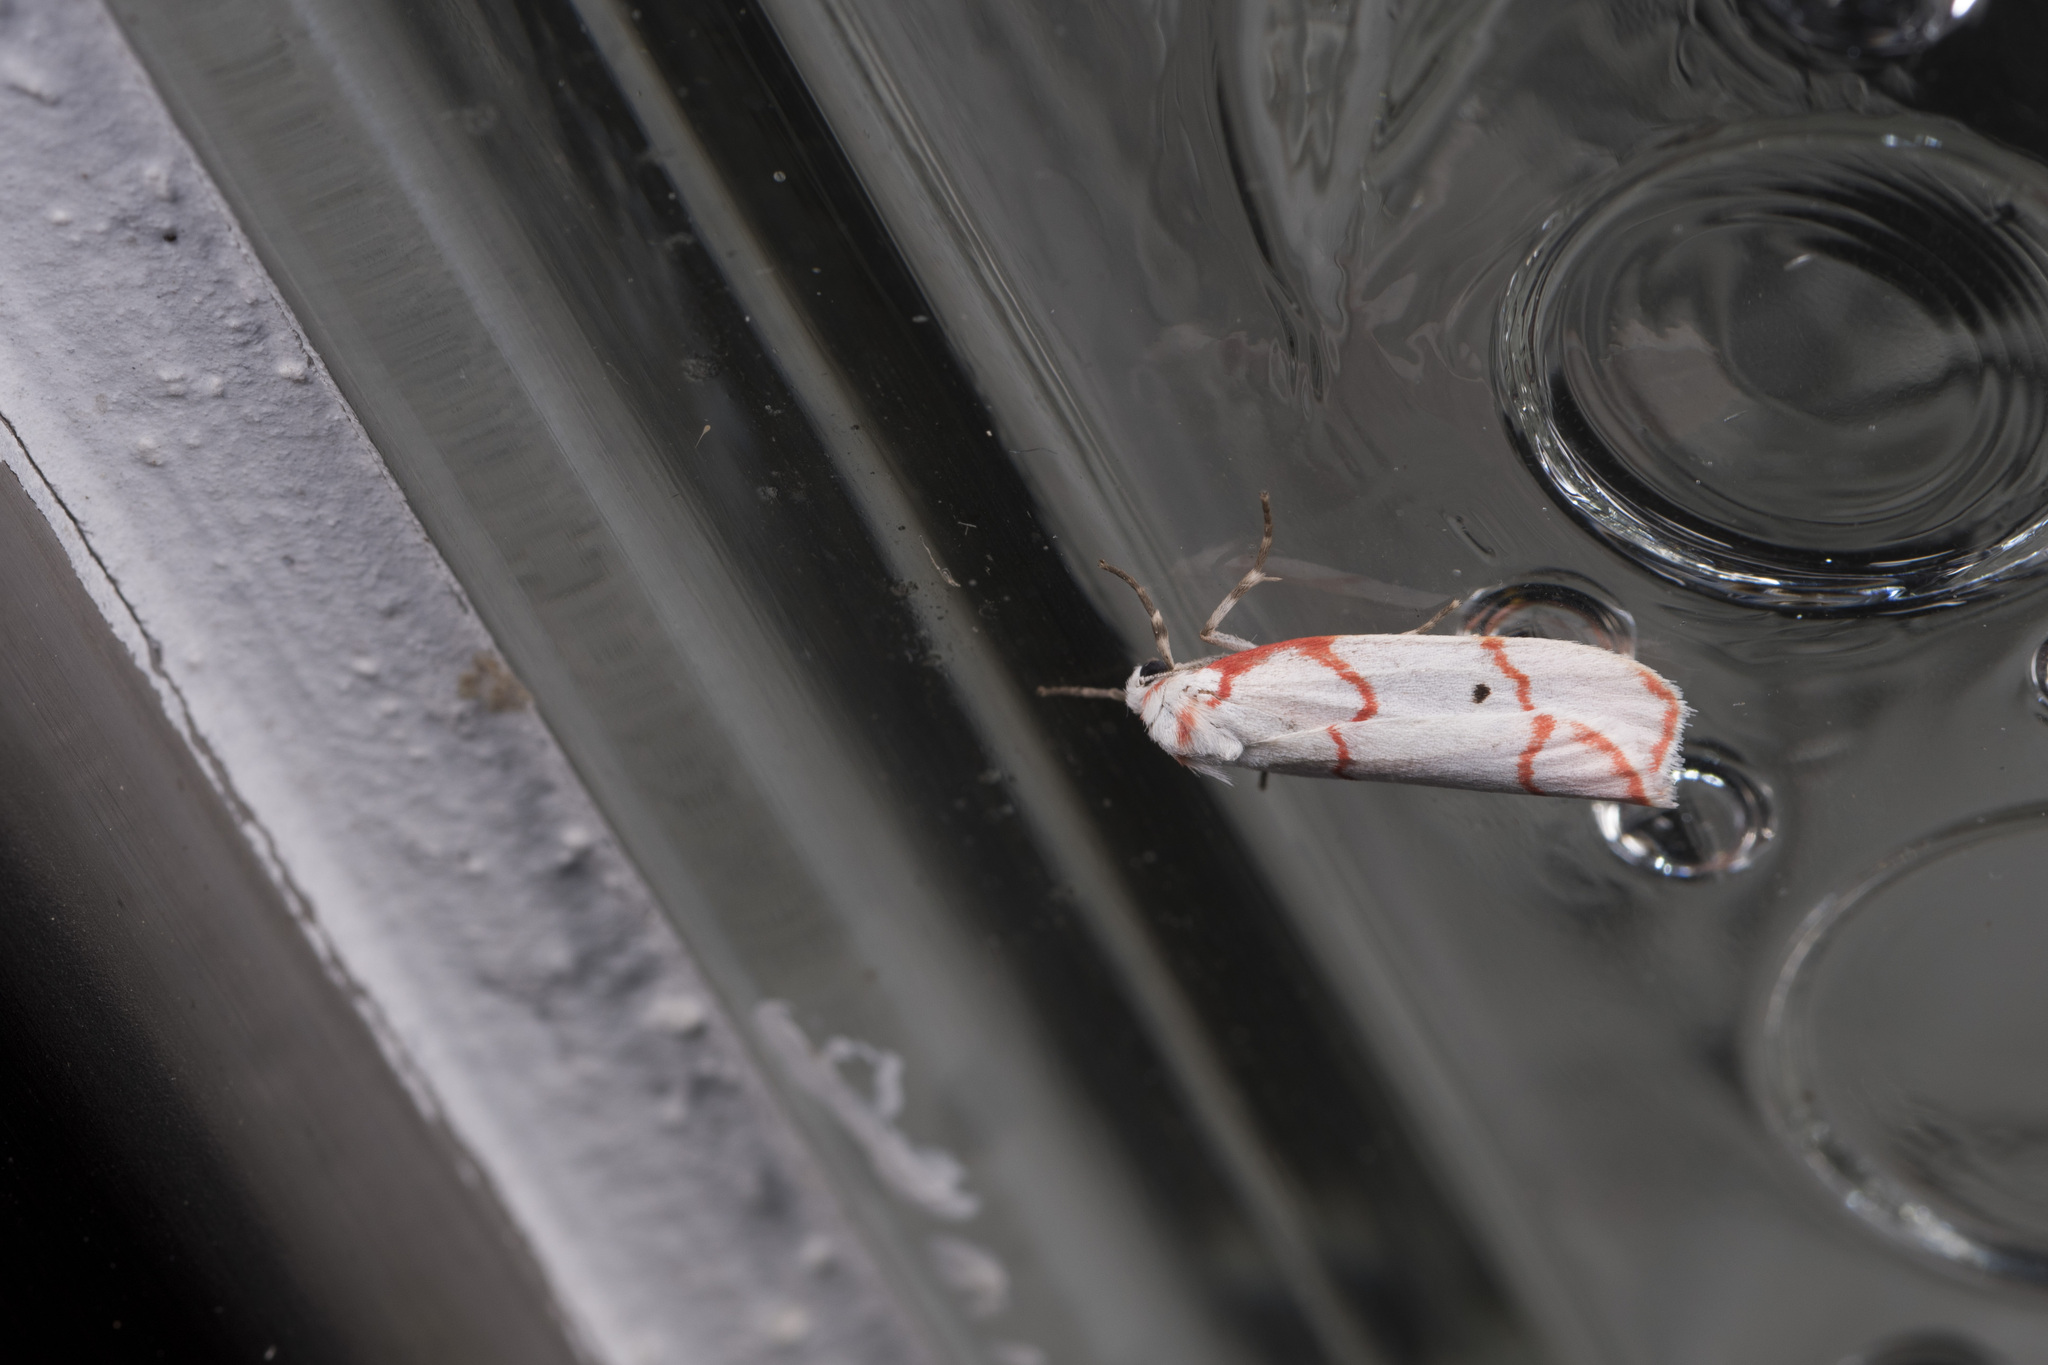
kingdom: Animalia
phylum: Arthropoda
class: Insecta
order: Lepidoptera
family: Erebidae
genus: Cyana
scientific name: Cyana sanguinea
